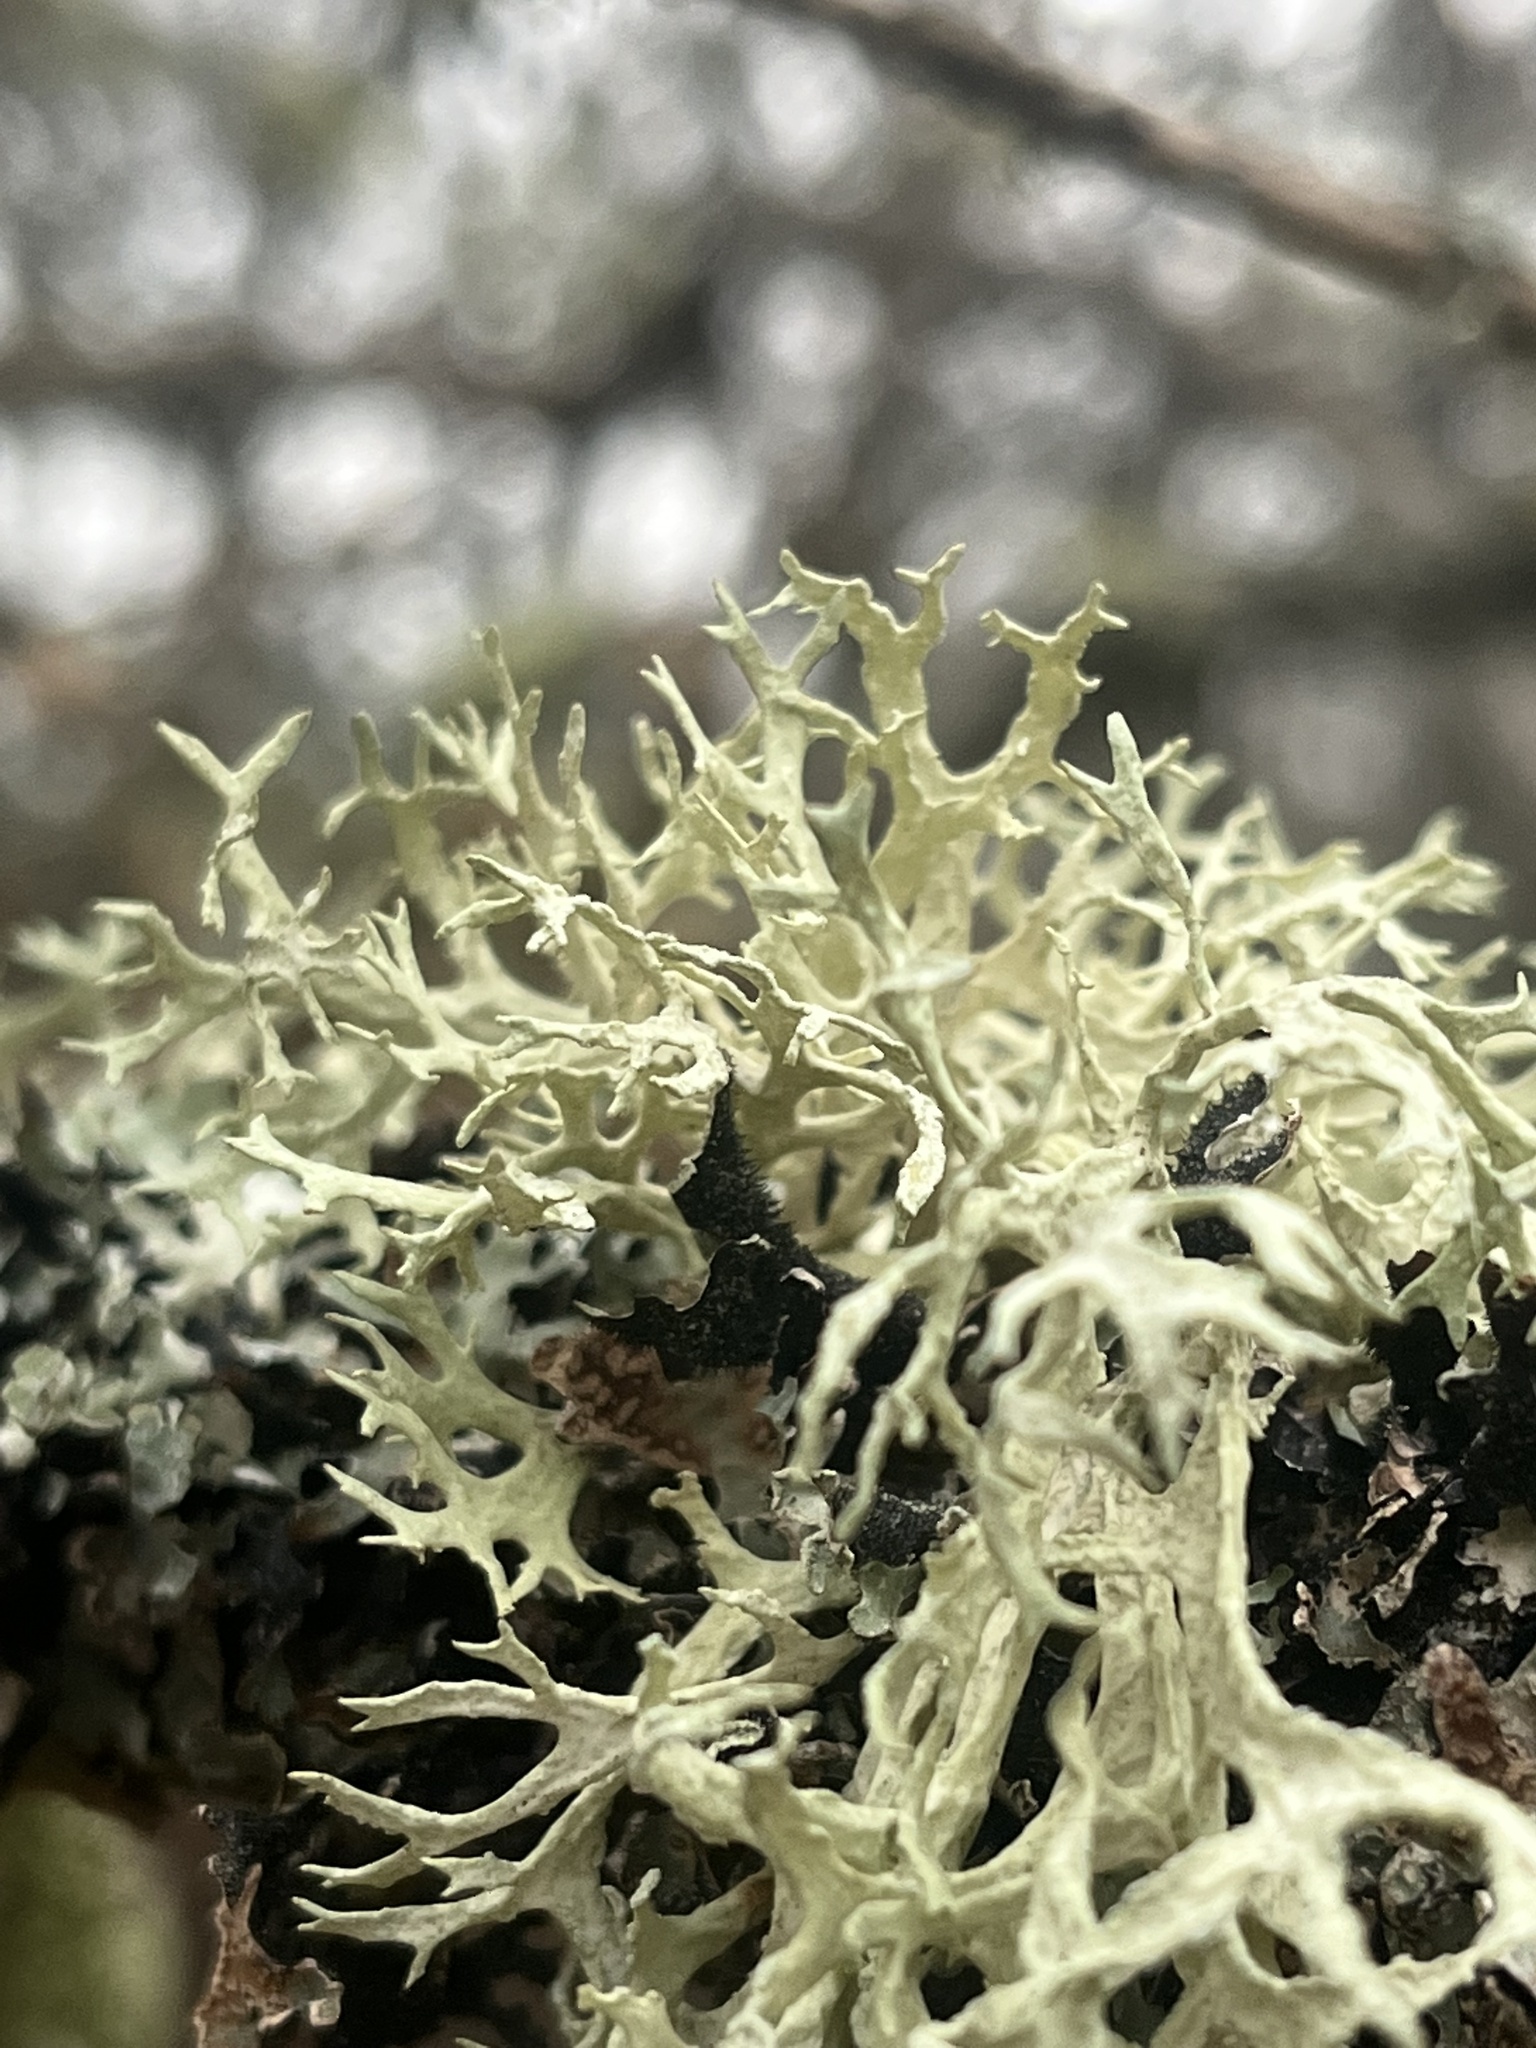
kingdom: Fungi
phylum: Ascomycota
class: Lecanoromycetes
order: Lecanorales
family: Parmeliaceae
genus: Evernia
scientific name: Evernia prunastri
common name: Oak moss
